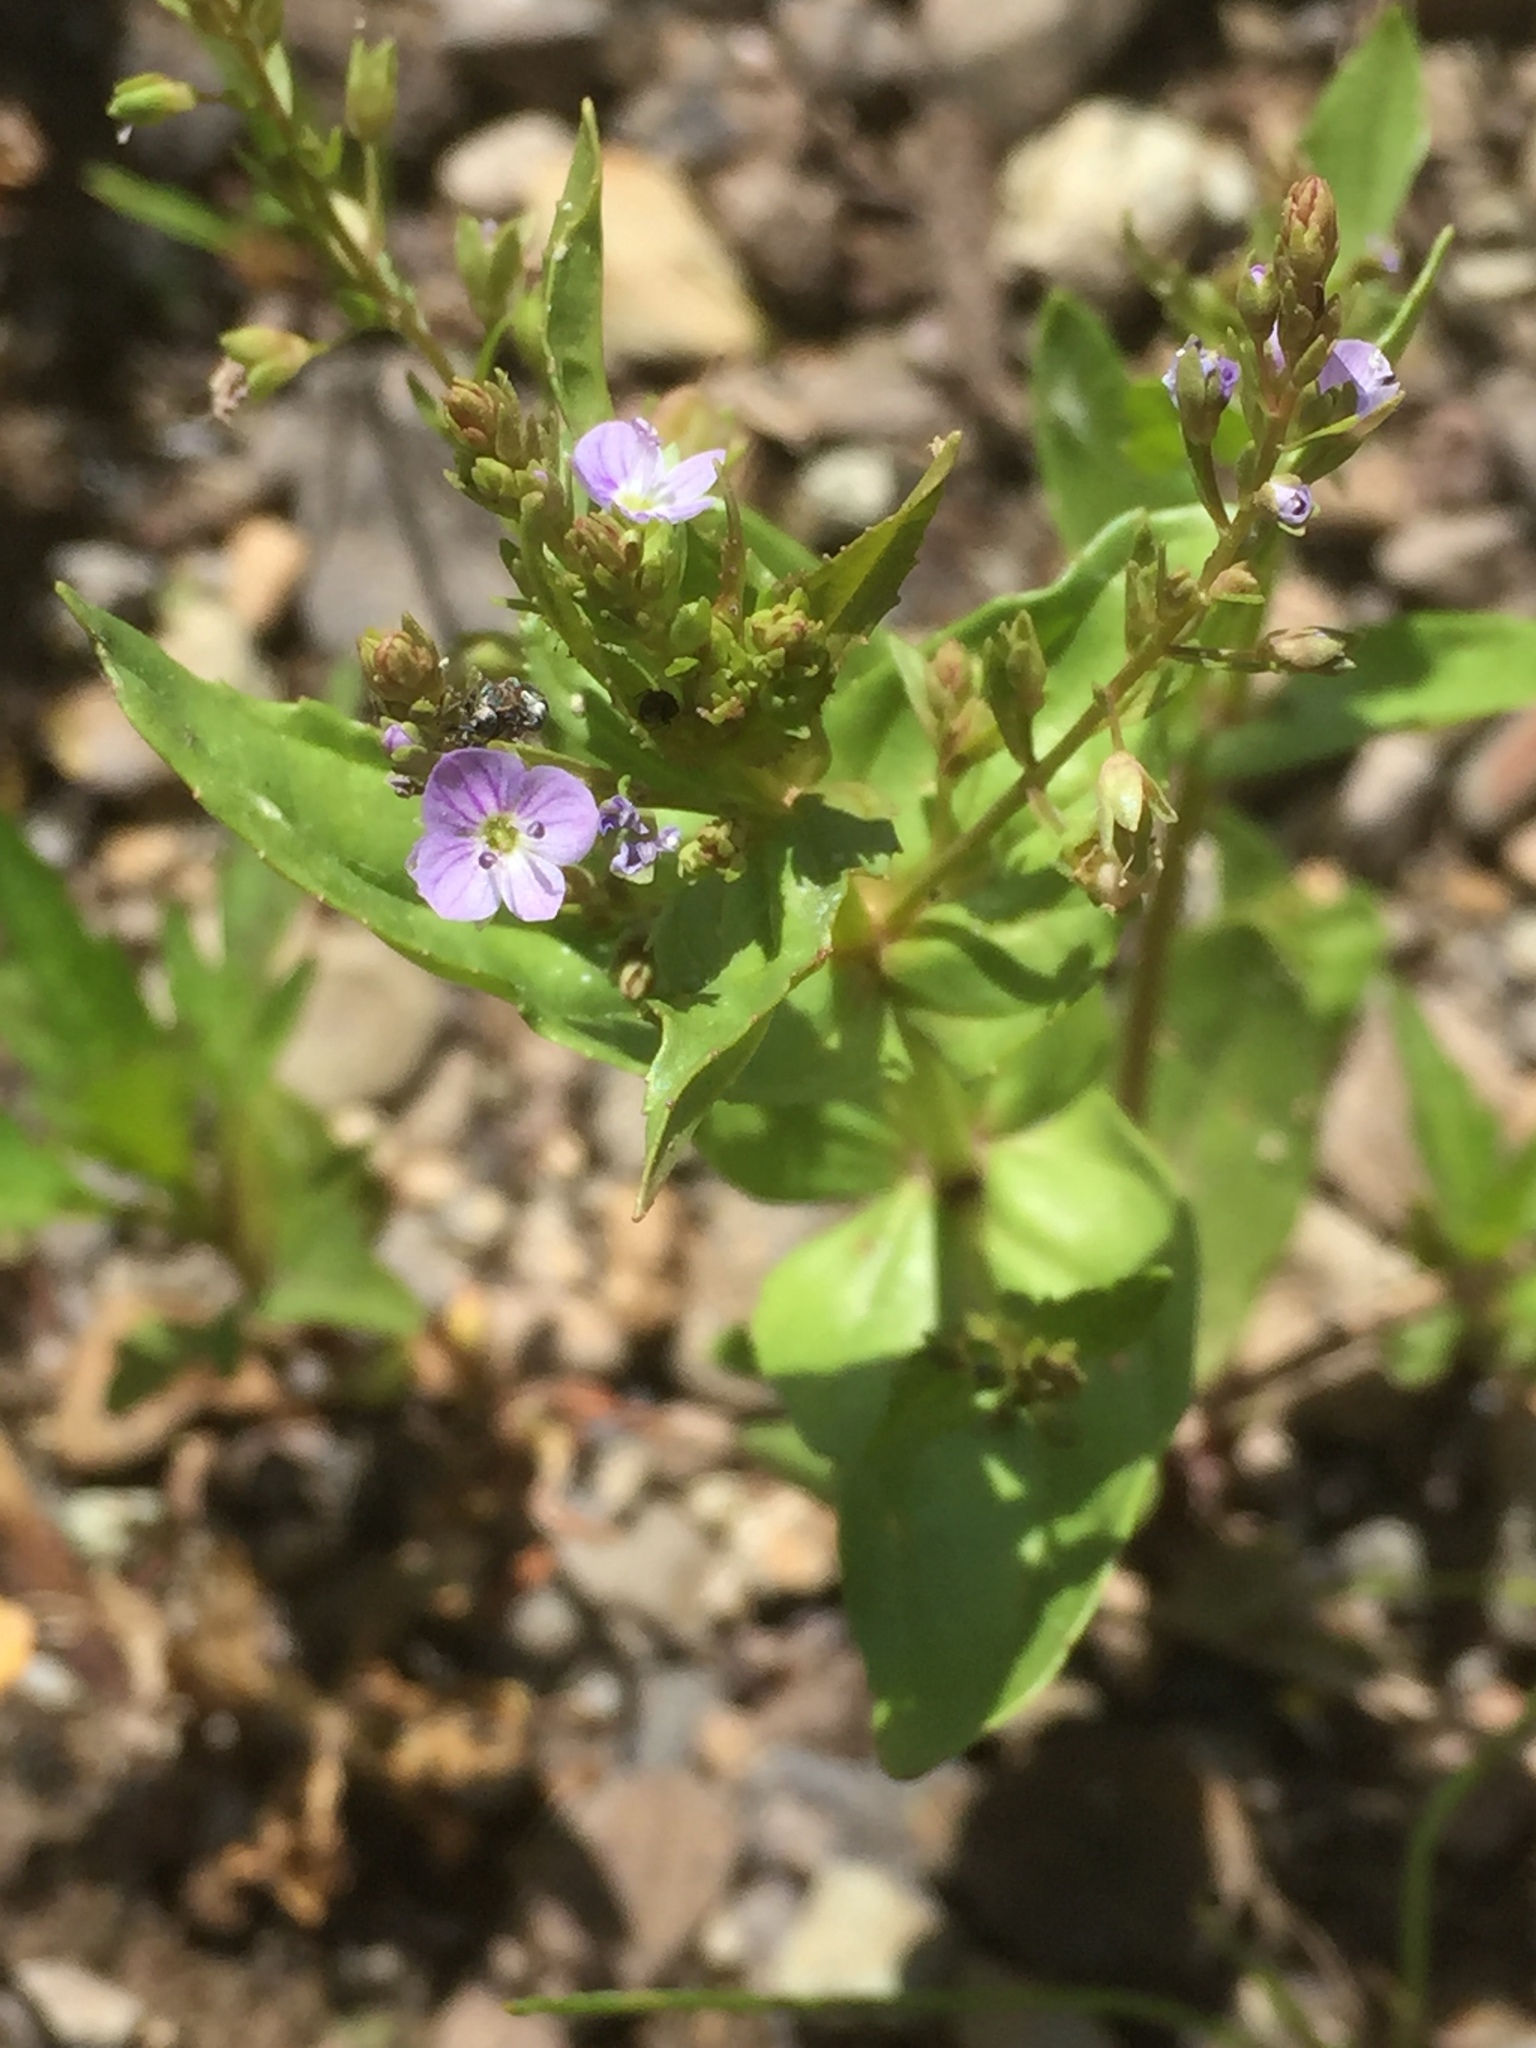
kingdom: Plantae
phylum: Tracheophyta
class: Magnoliopsida
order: Lamiales
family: Plantaginaceae
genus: Veronica
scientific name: Veronica anagallis-aquatica
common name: Water speedwell
